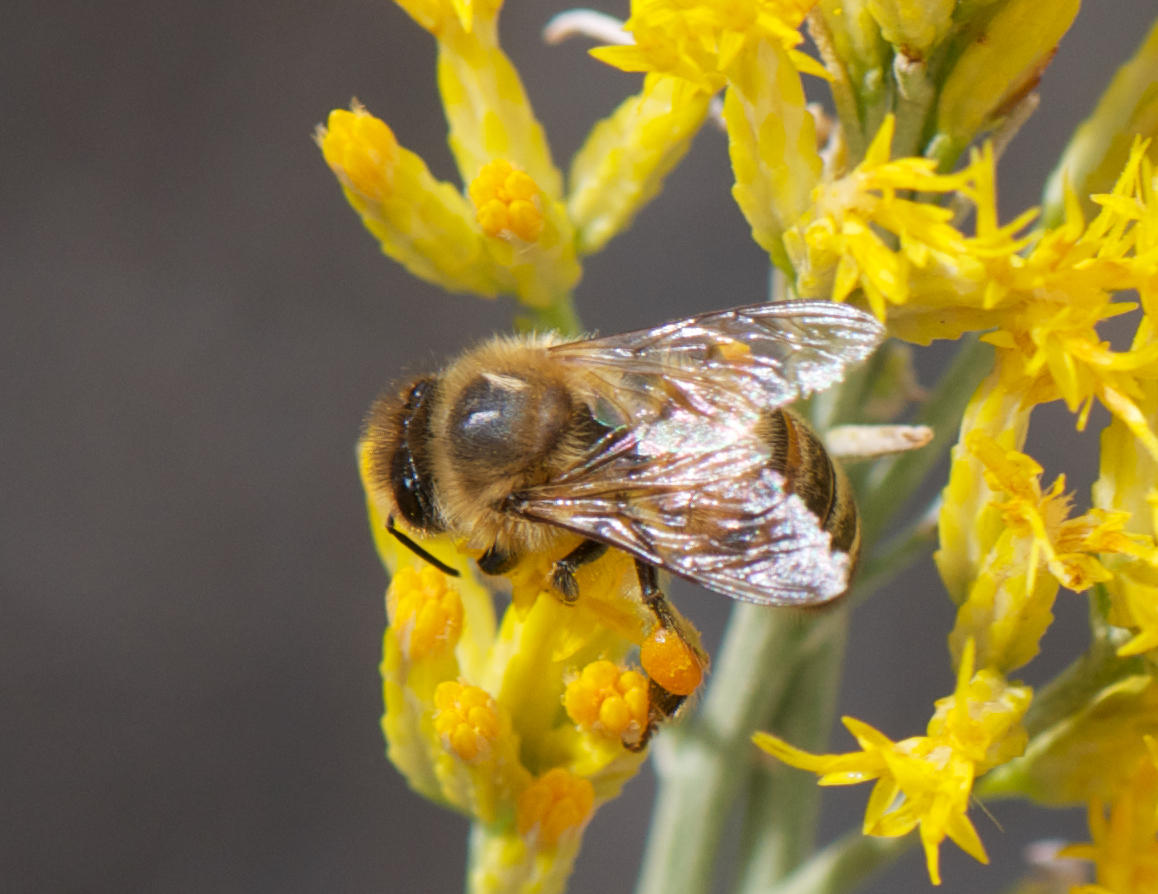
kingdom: Animalia
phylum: Arthropoda
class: Insecta
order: Hymenoptera
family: Apidae
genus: Apis
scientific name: Apis mellifera
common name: Honey bee
